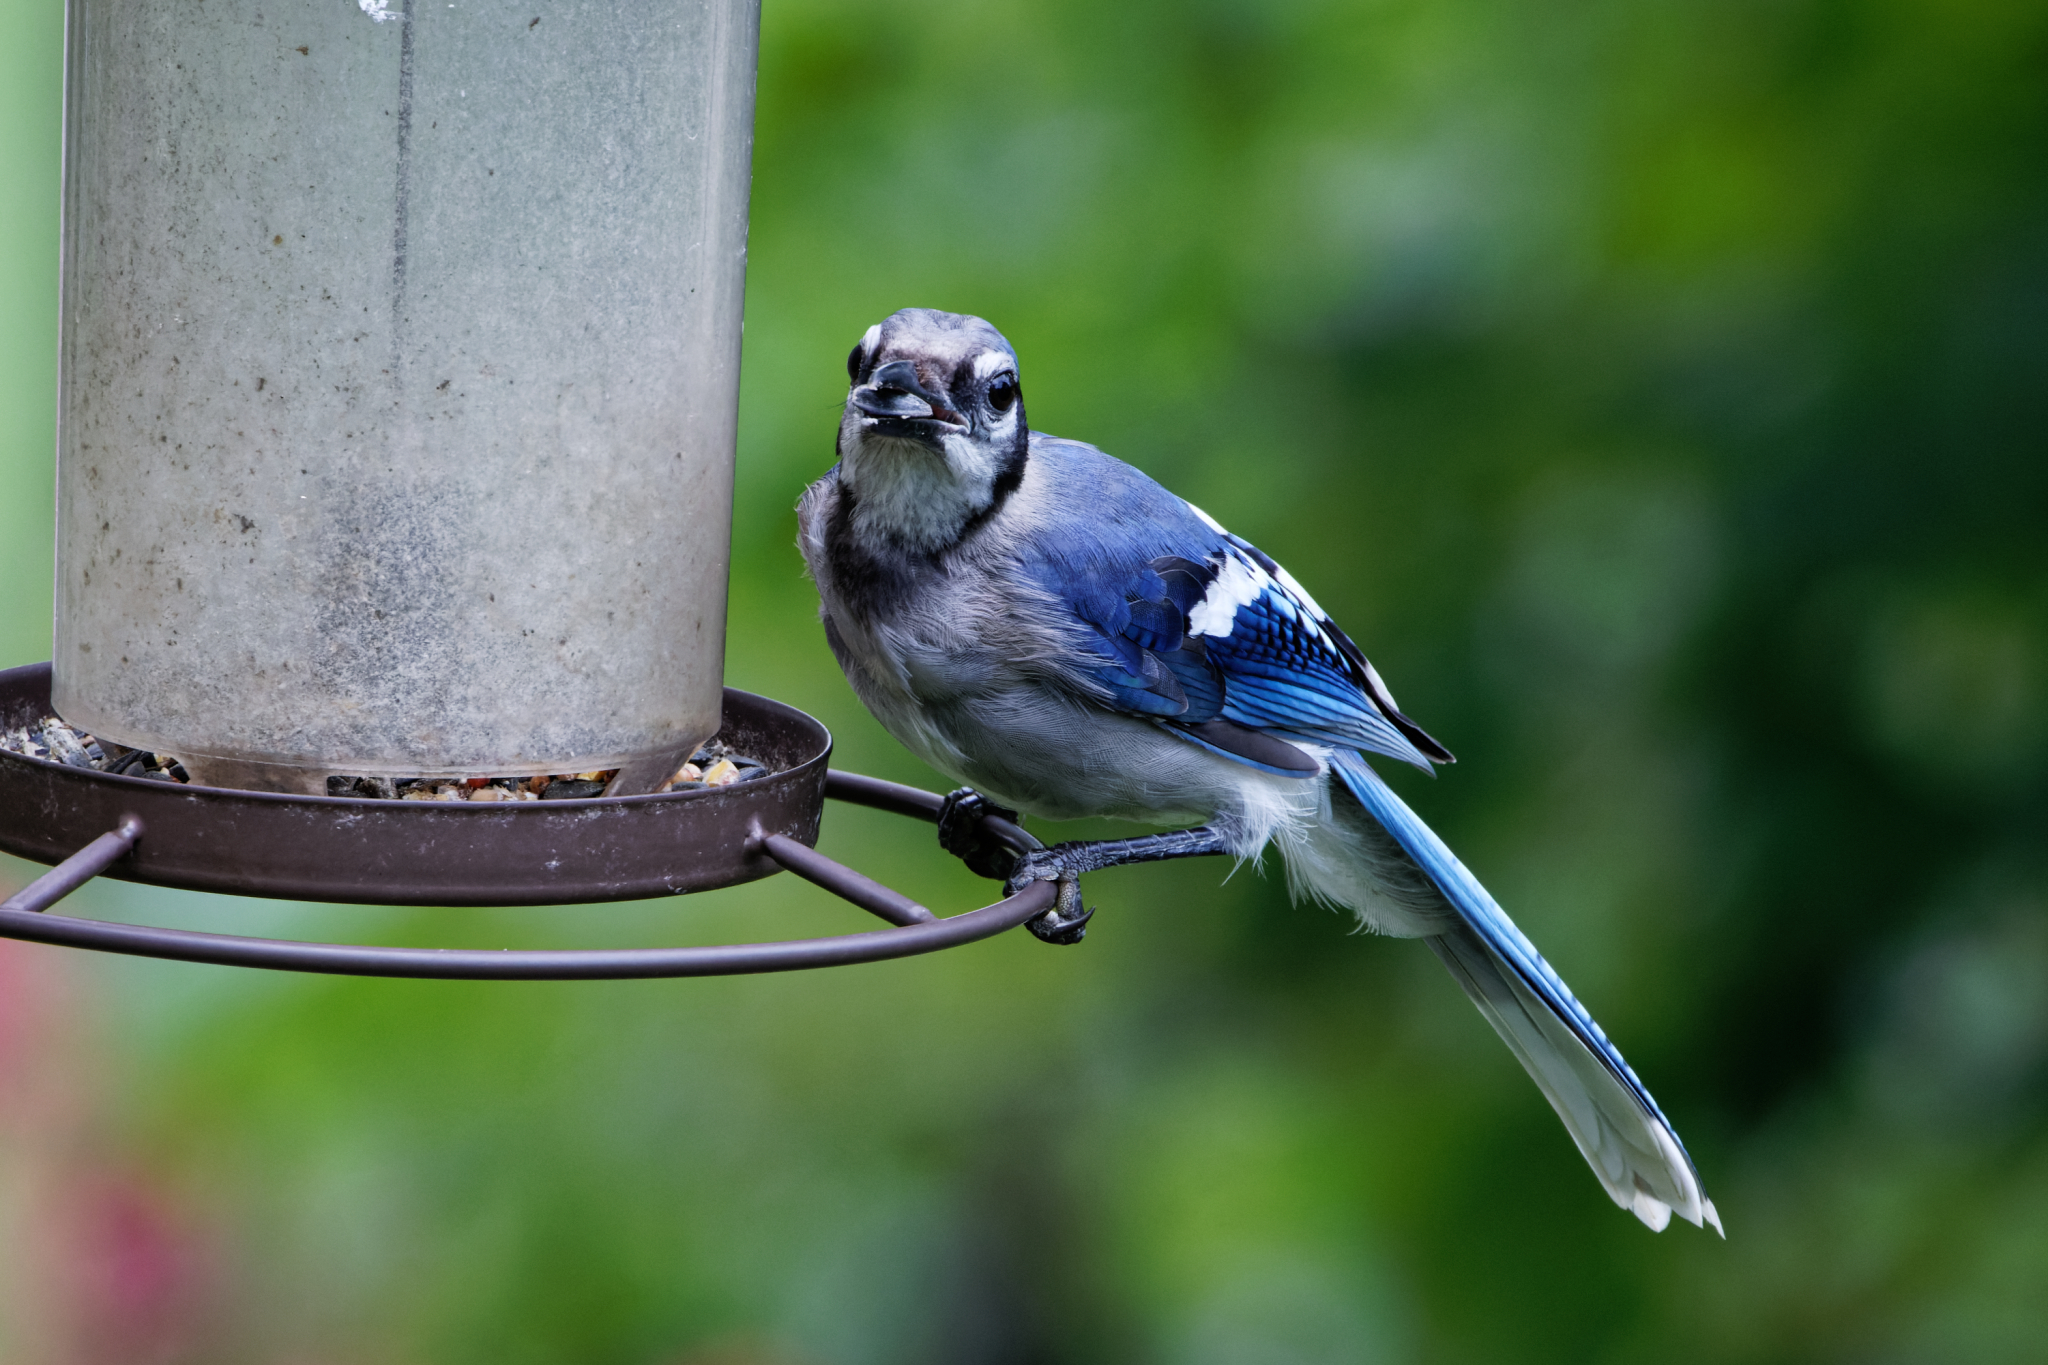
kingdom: Animalia
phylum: Chordata
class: Aves
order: Passeriformes
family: Corvidae
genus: Cyanocitta
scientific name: Cyanocitta cristata
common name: Blue jay
